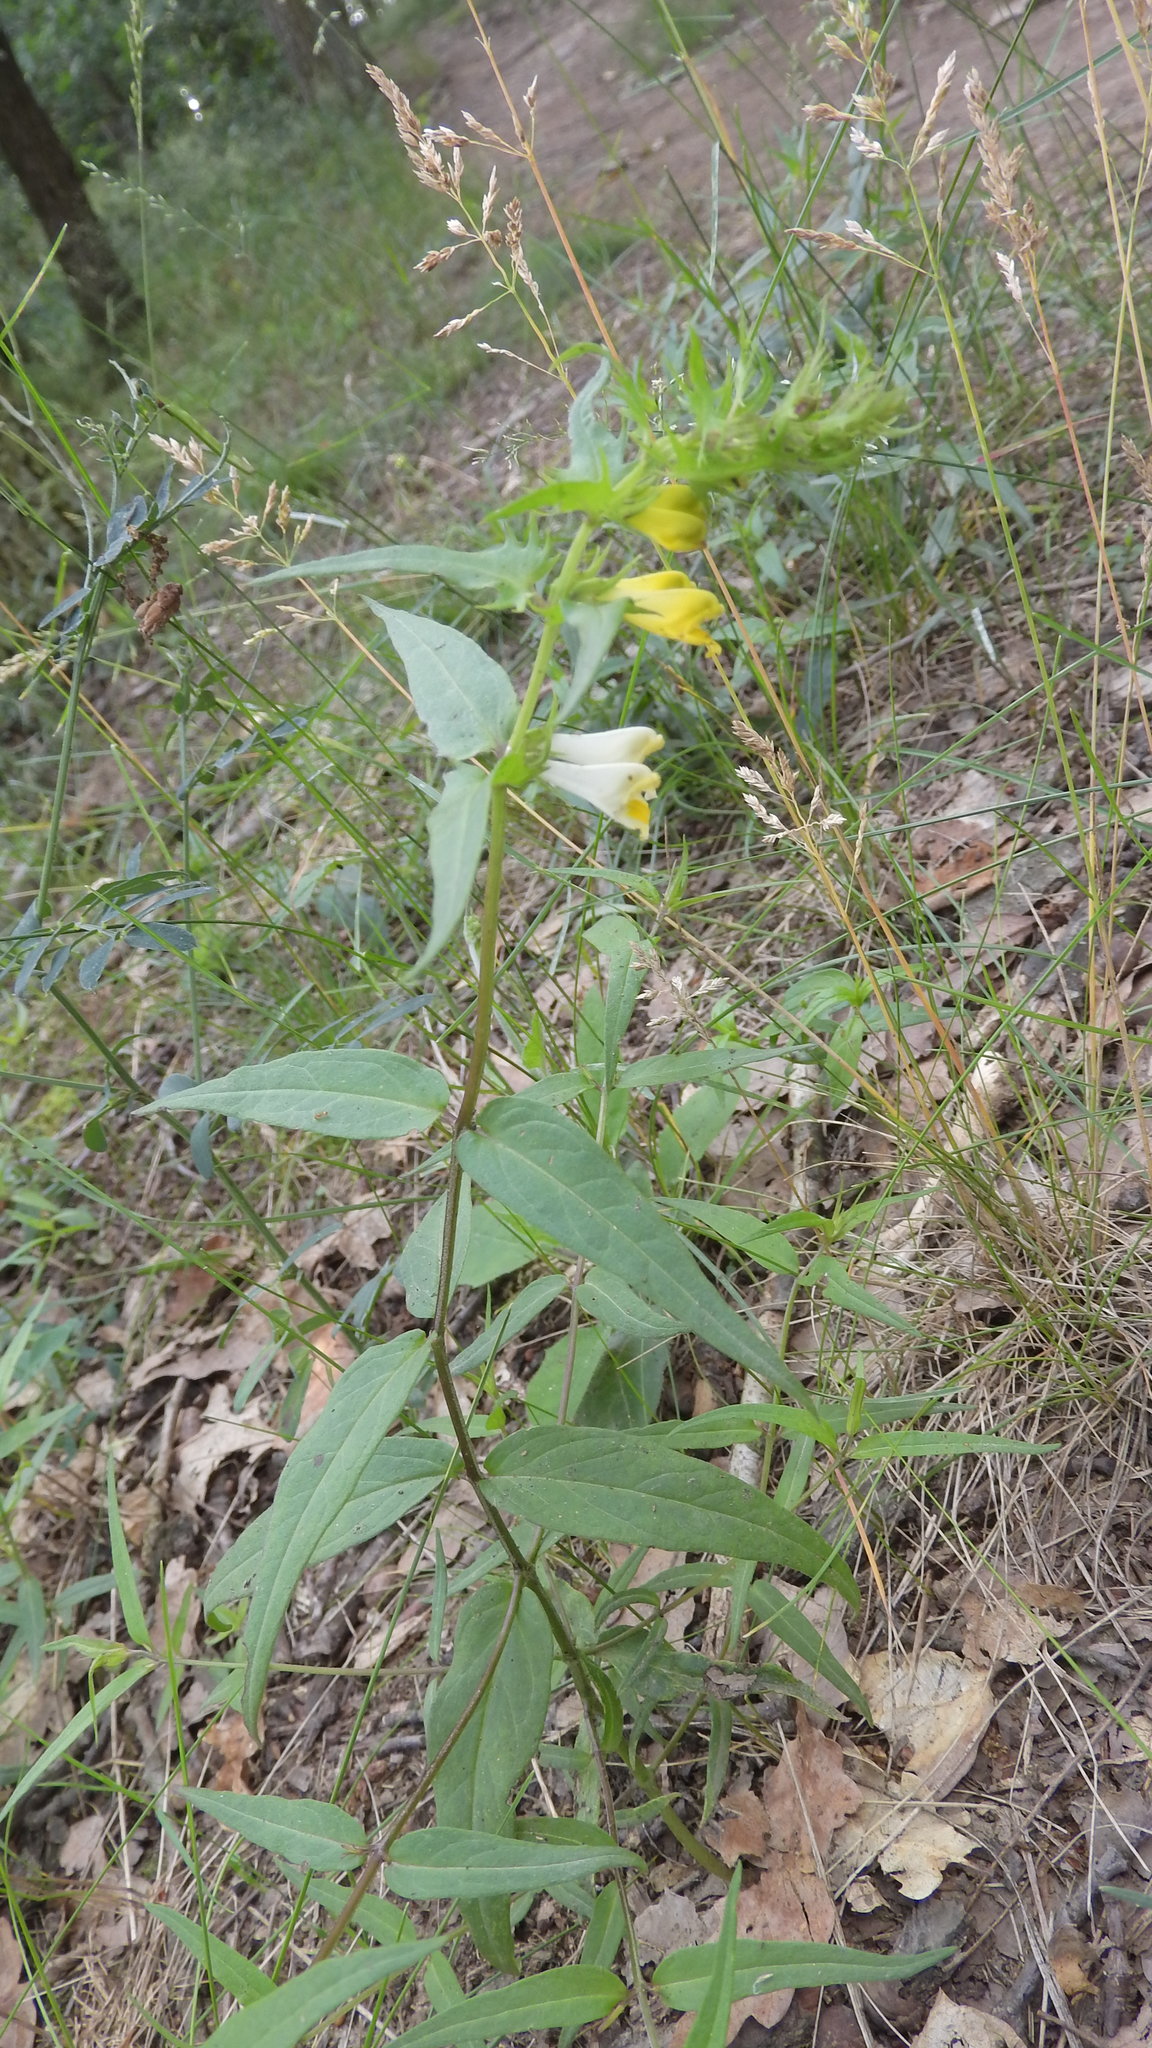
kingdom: Plantae
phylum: Tracheophyta
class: Magnoliopsida
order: Lamiales
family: Orobanchaceae
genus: Melampyrum
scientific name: Melampyrum pratense
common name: Common cow-wheat
